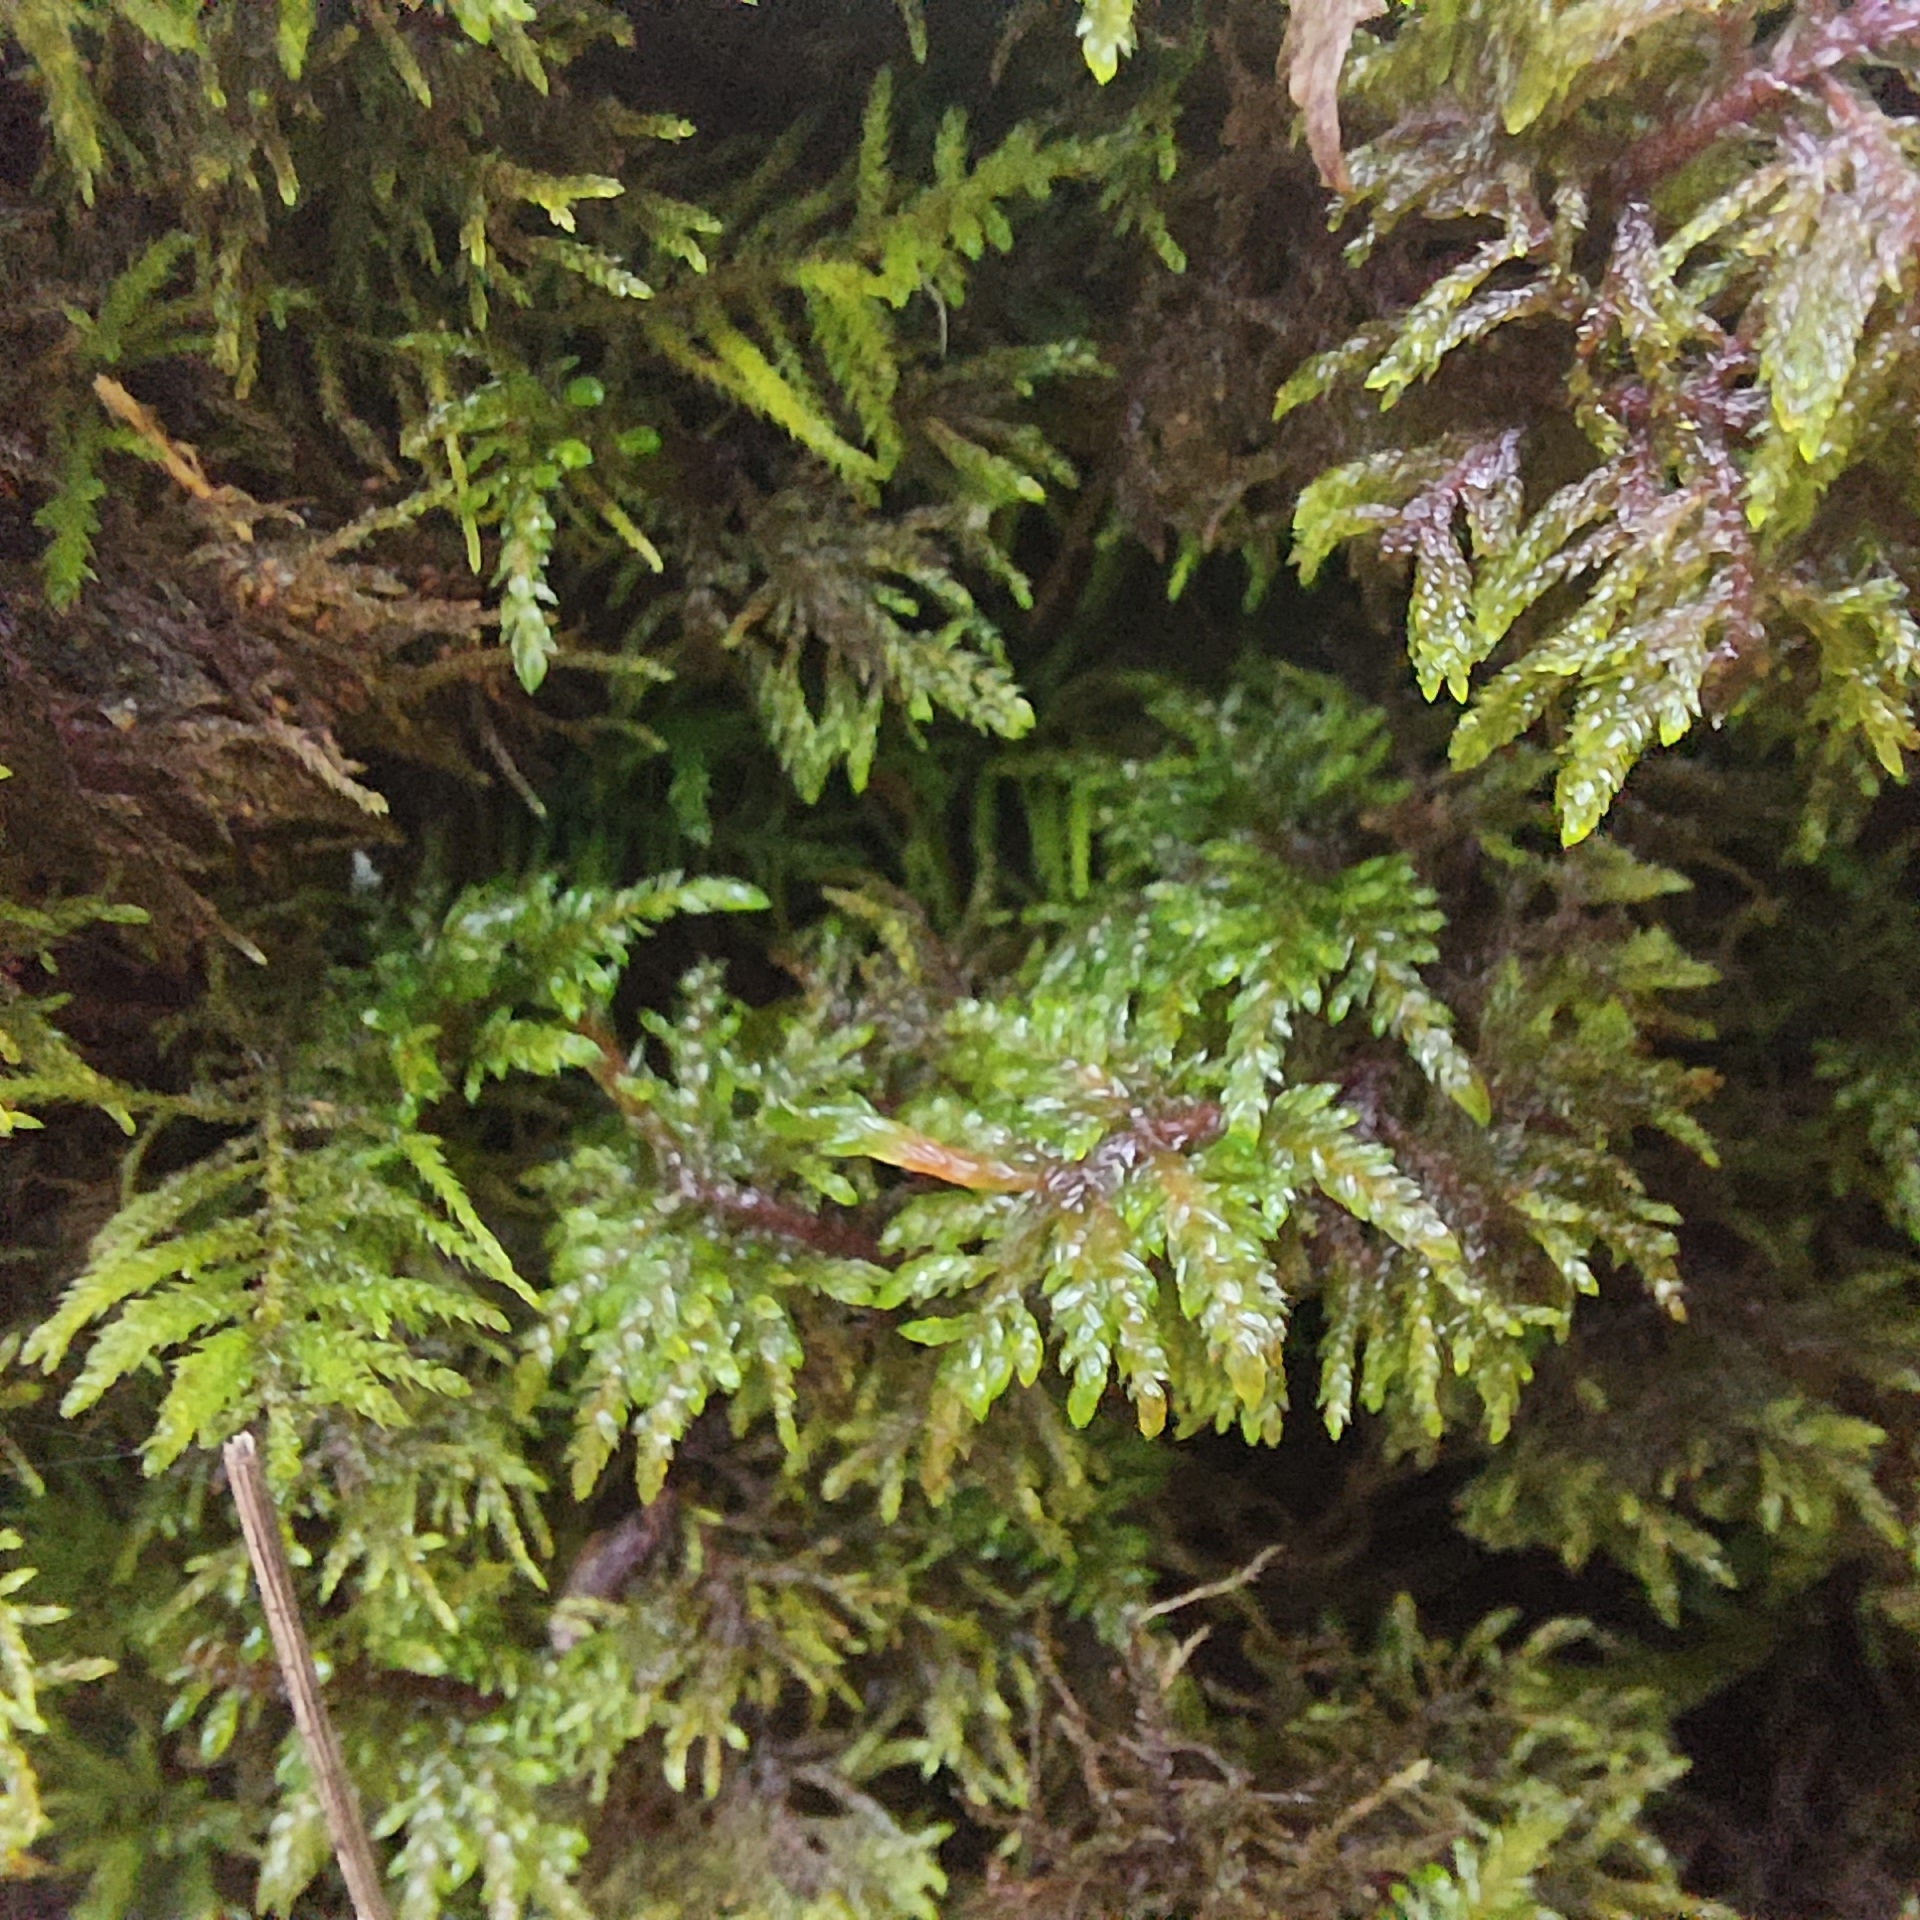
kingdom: Plantae
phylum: Bryophyta
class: Bryopsida
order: Hypnales
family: Hylocomiaceae
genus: Hylocomium
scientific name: Hylocomium splendens
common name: Stairstep moss
